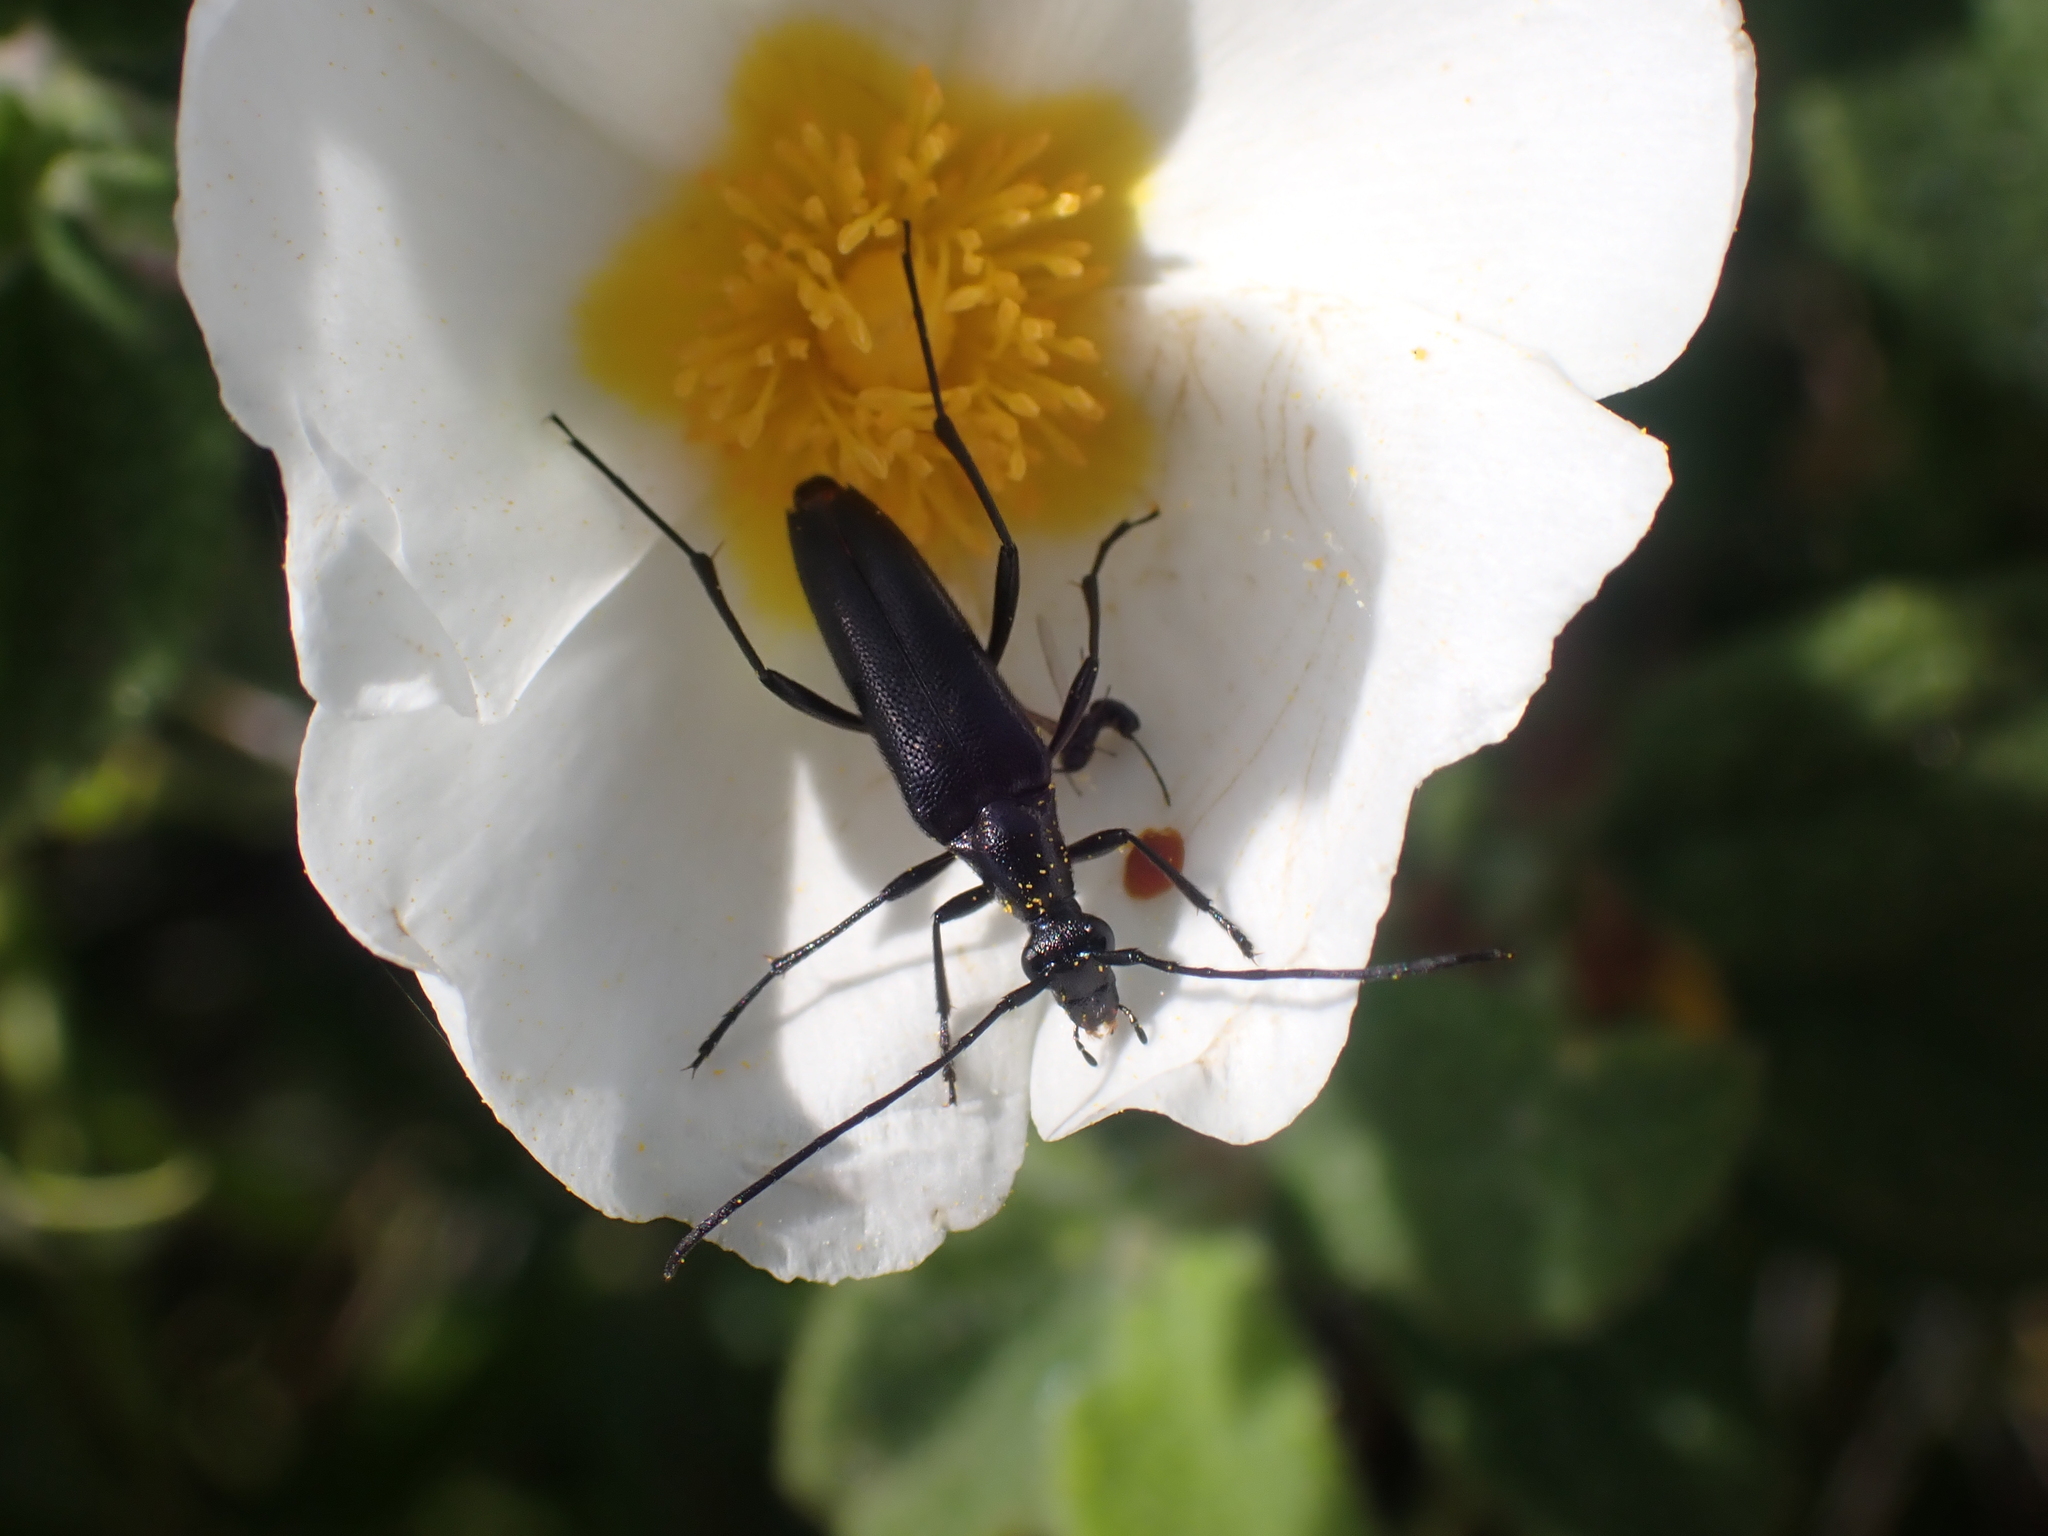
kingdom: Animalia
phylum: Arthropoda
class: Insecta
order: Coleoptera
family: Cerambycidae
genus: Stenurella
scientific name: Stenurella nigra
